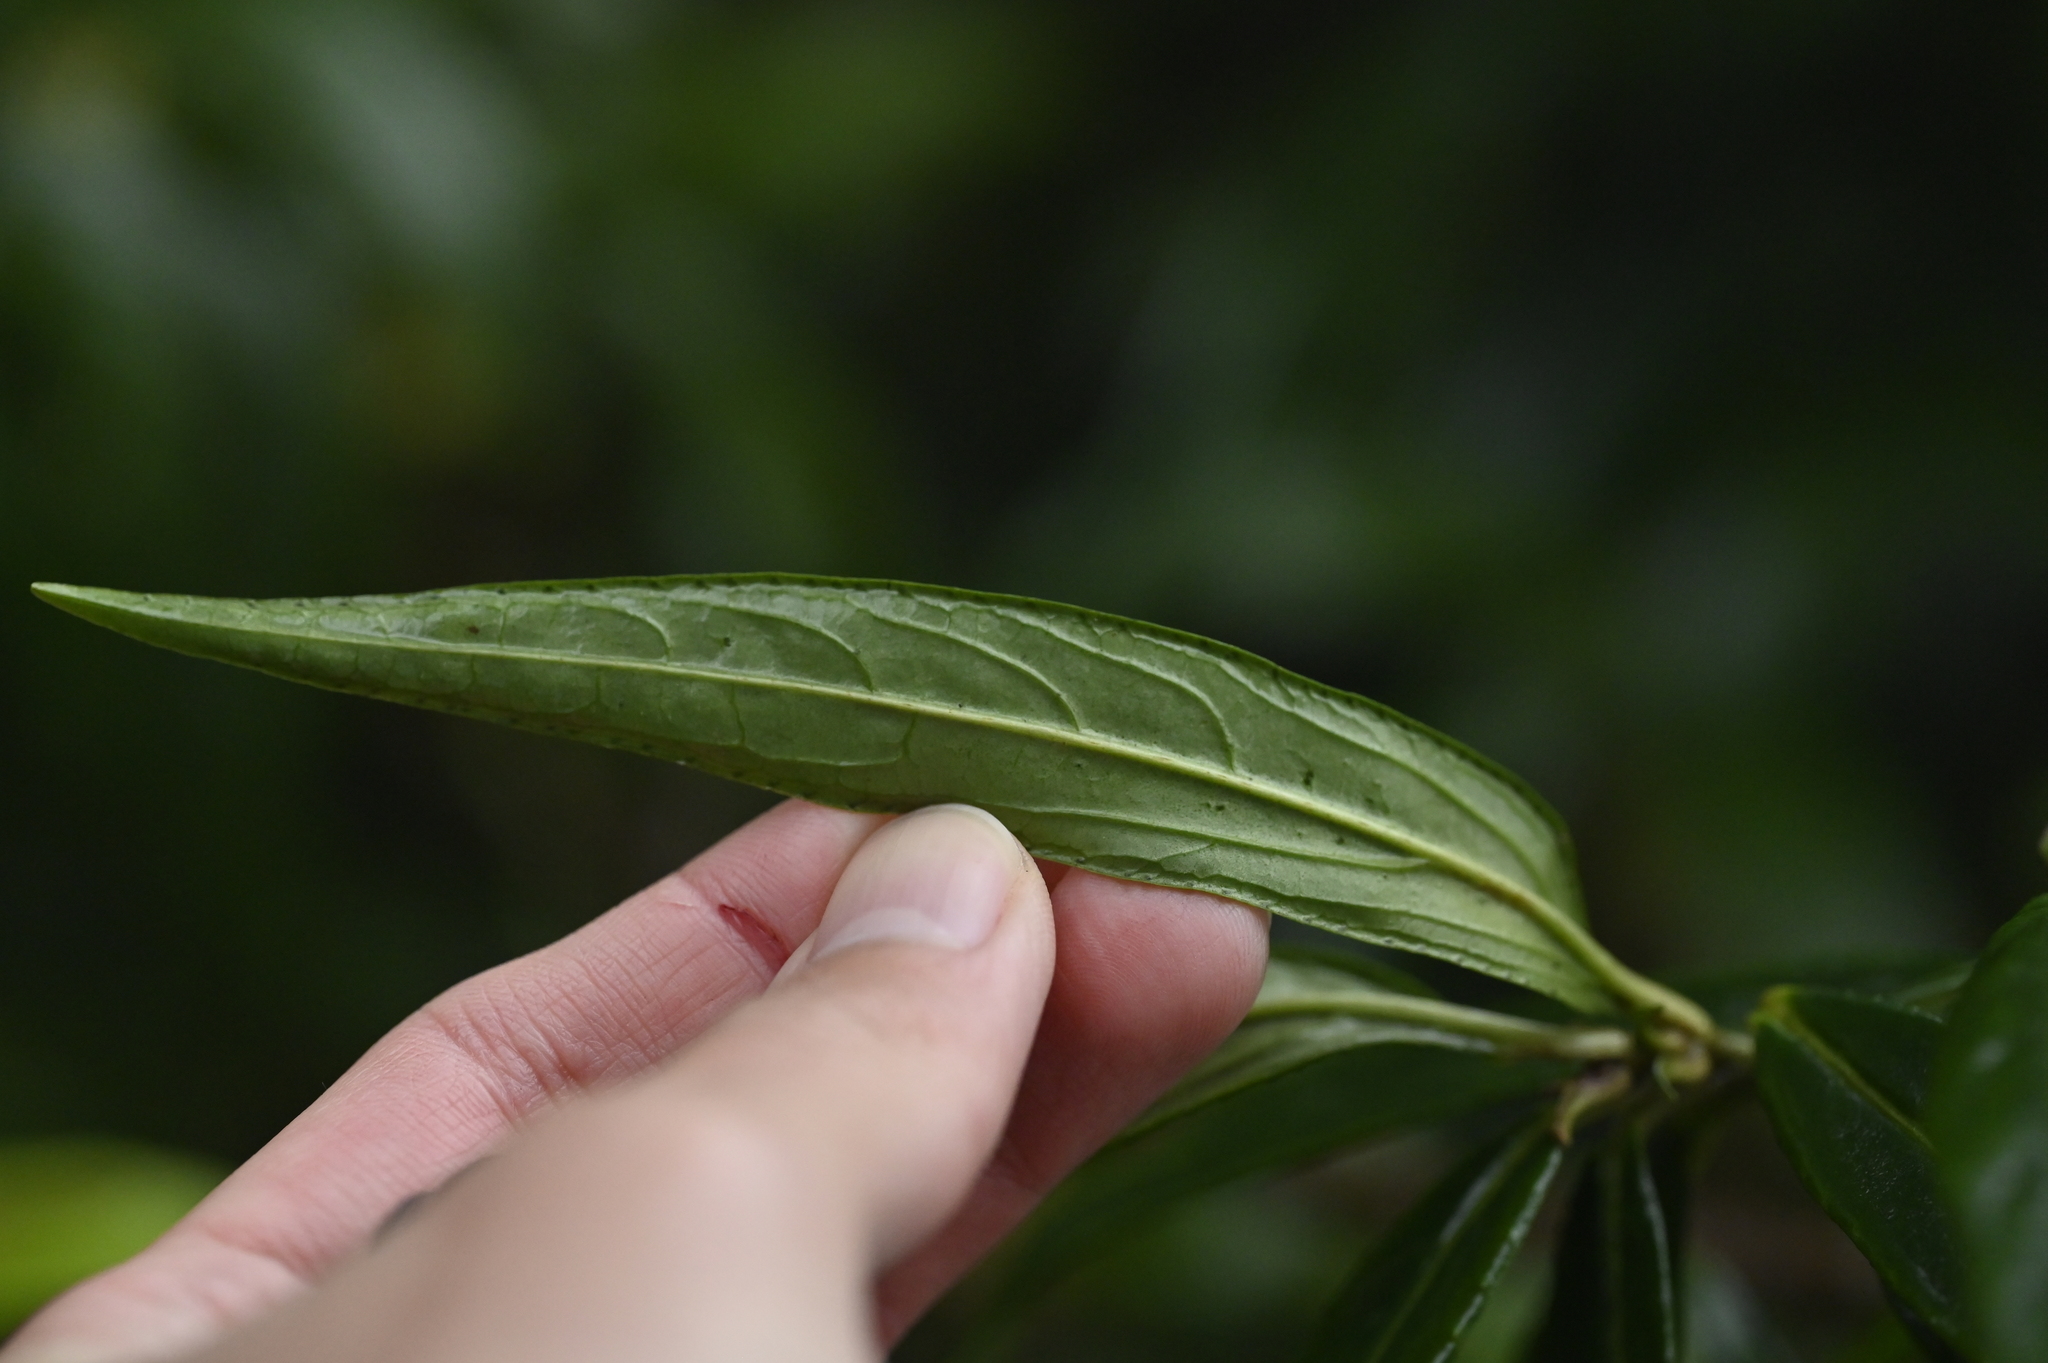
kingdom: Plantae
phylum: Tracheophyta
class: Magnoliopsida
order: Ericales
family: Primulaceae
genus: Ardisia
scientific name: Ardisia crispa
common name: Japanese-holly
